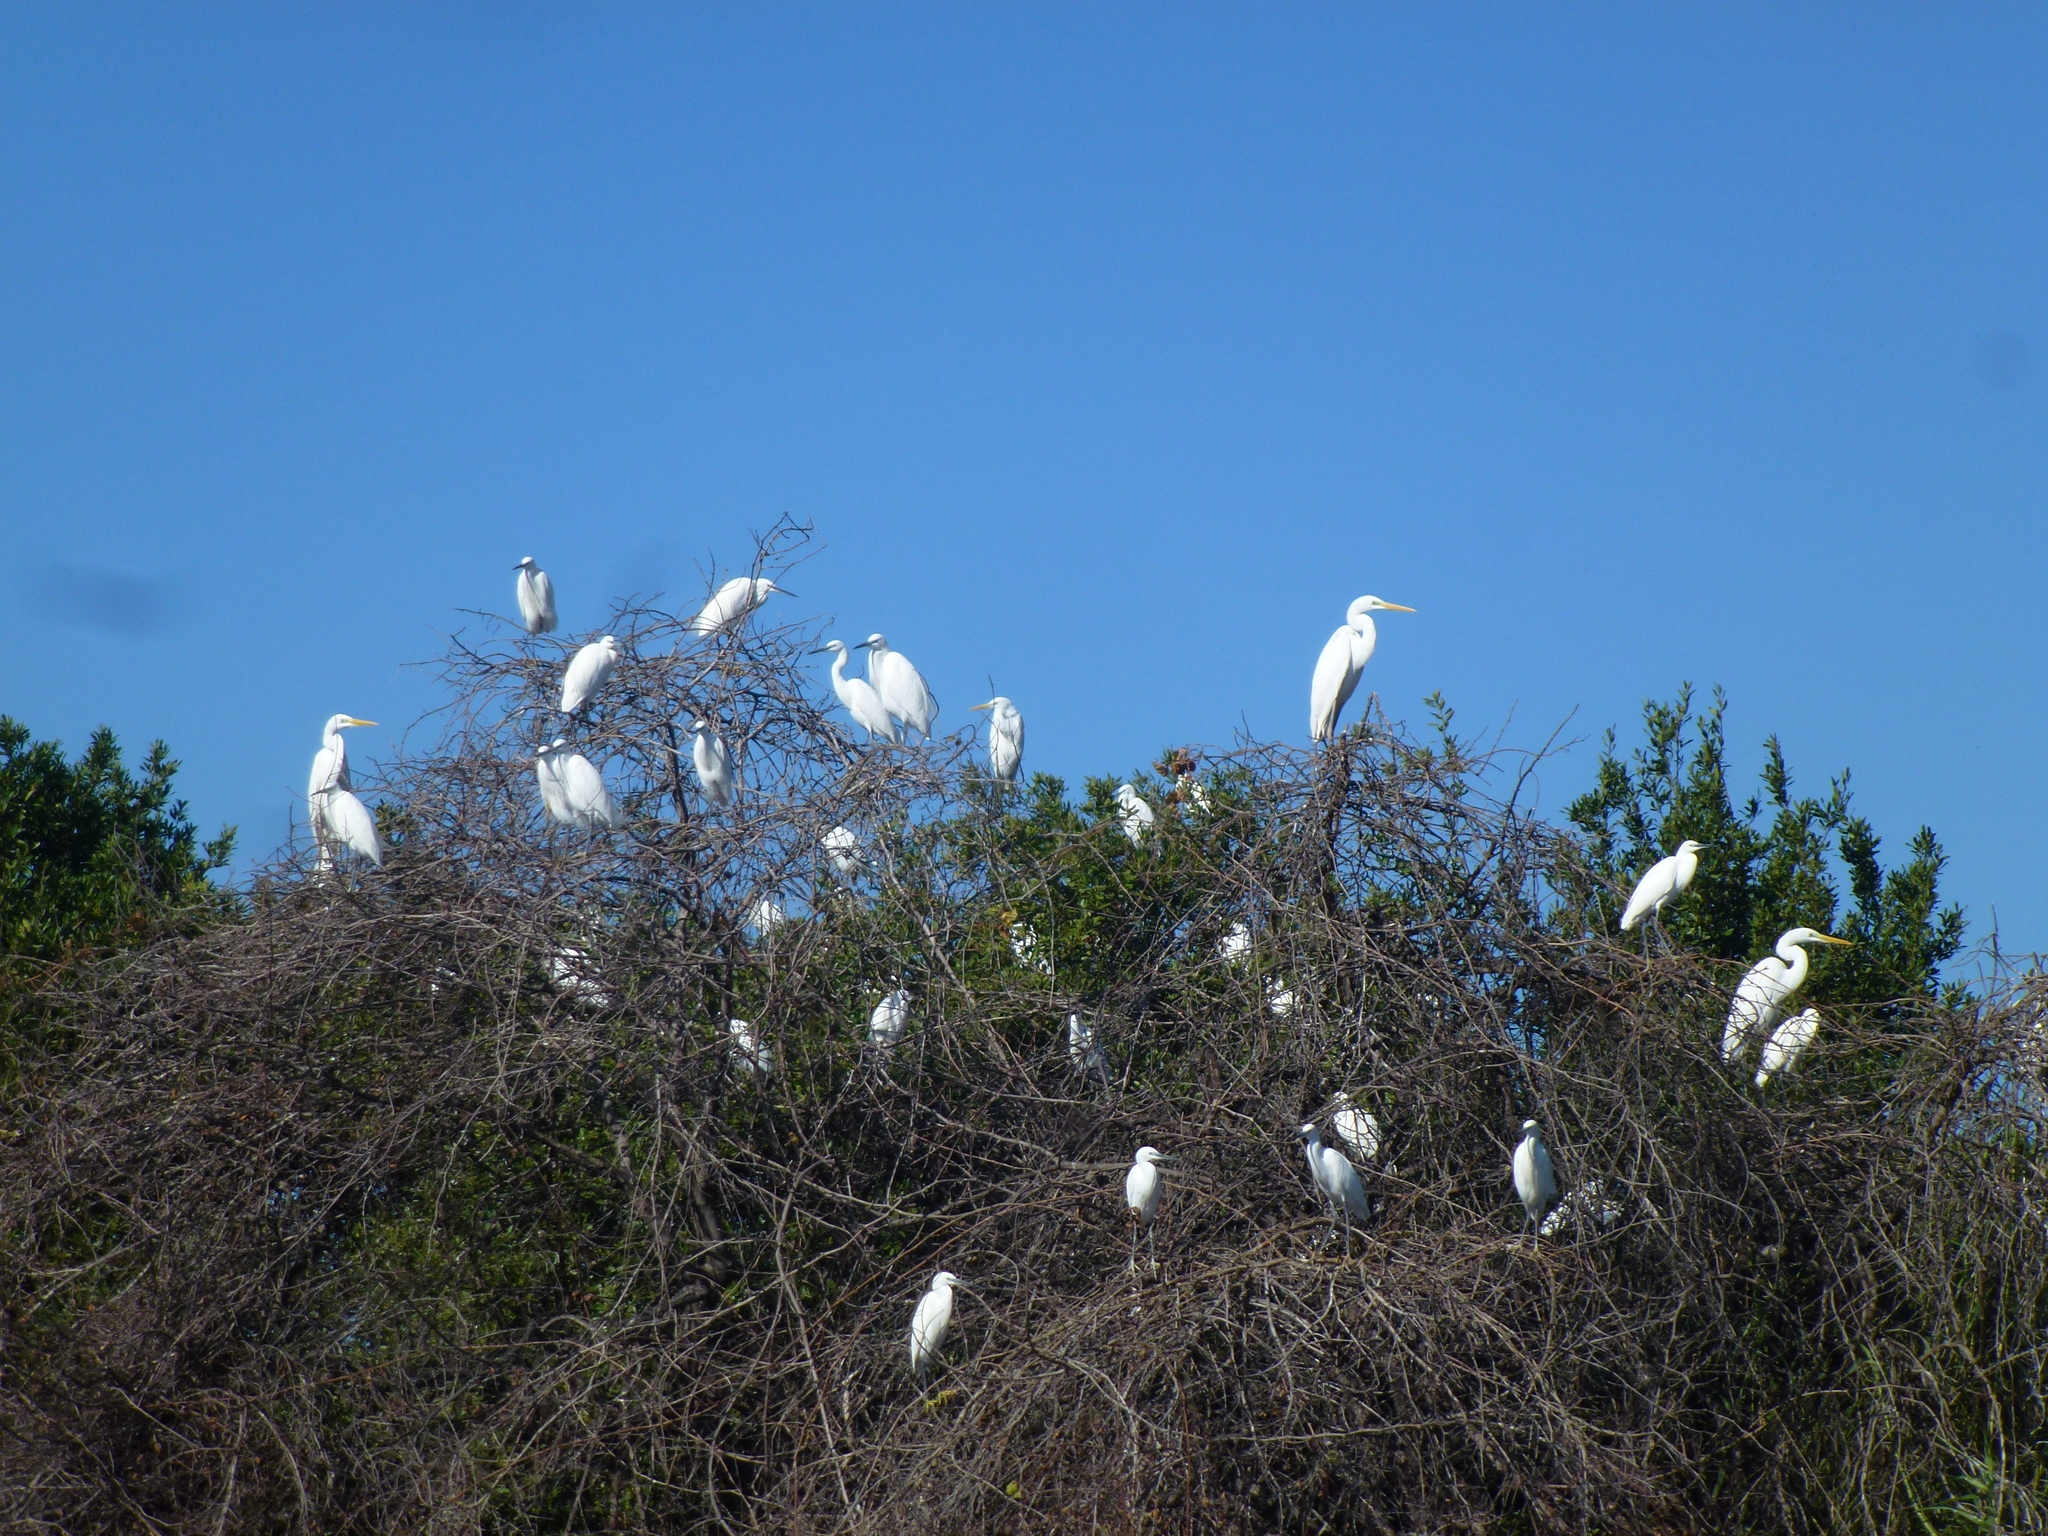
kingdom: Animalia
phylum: Chordata
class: Aves
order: Pelecaniformes
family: Ardeidae
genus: Ardea
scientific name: Ardea alba
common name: Great egret
